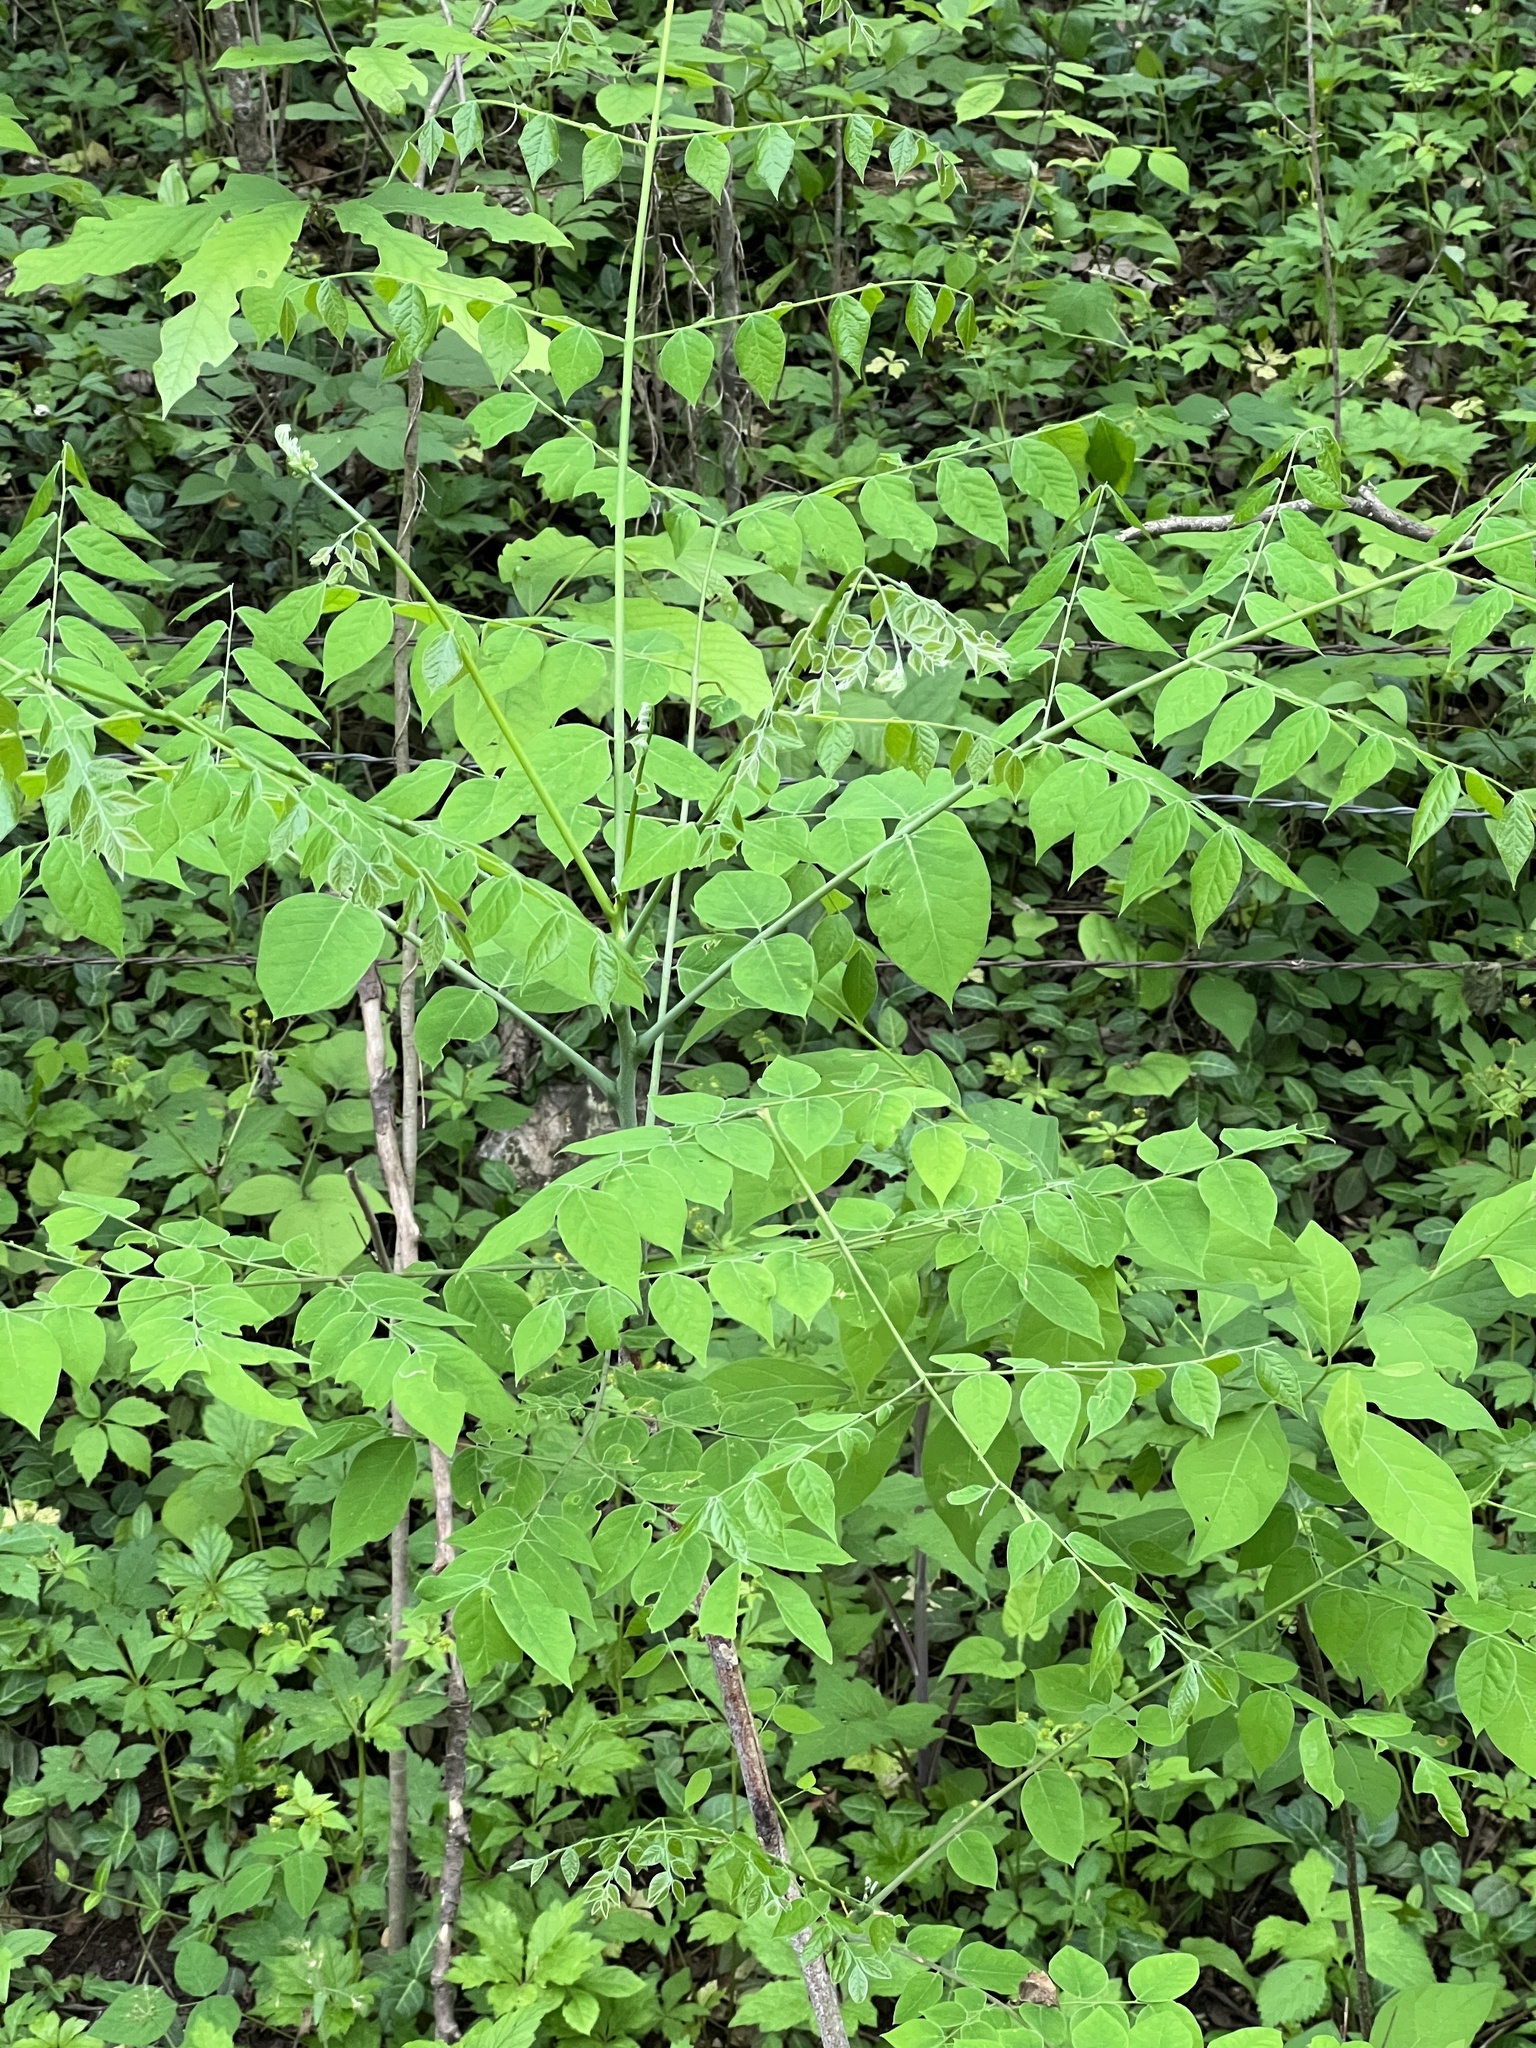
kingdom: Plantae
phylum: Tracheophyta
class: Magnoliopsida
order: Fabales
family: Fabaceae
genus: Gymnocladus
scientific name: Gymnocladus dioicus
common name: Kentucky coffee-tree
